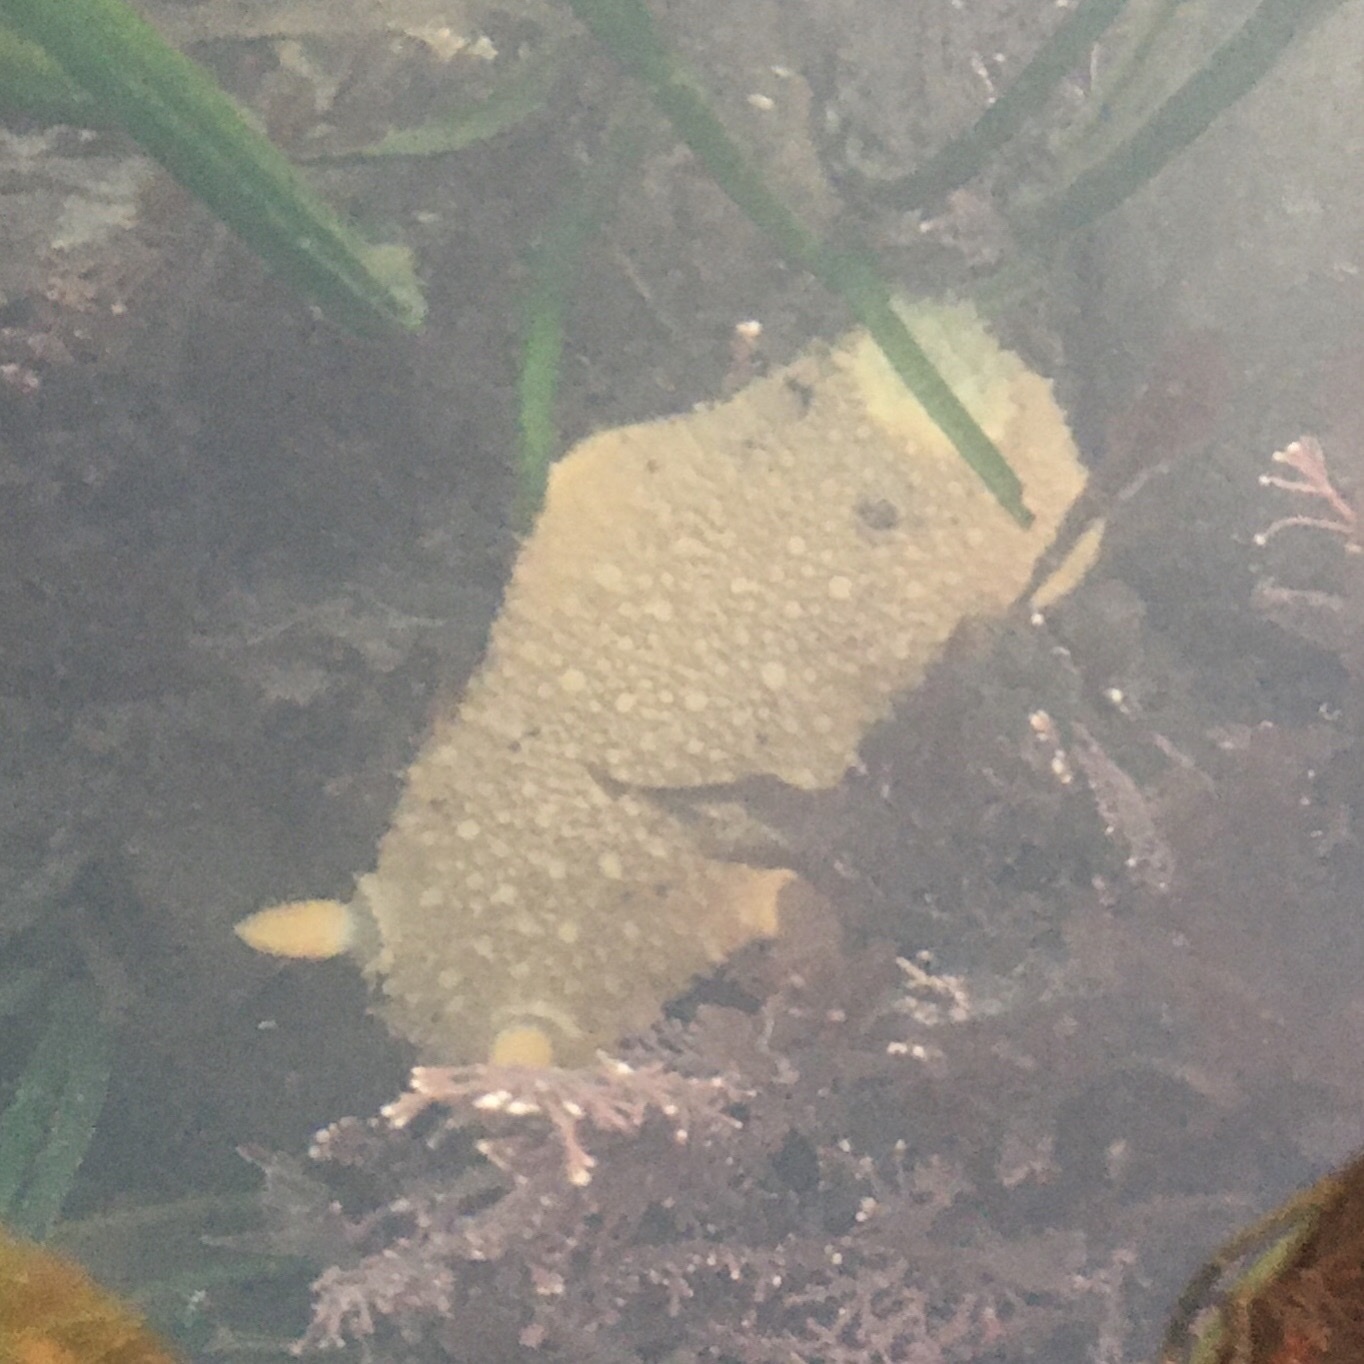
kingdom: Animalia
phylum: Mollusca
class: Gastropoda
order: Nudibranchia
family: Dorididae
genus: Doris
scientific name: Doris montereyensis
